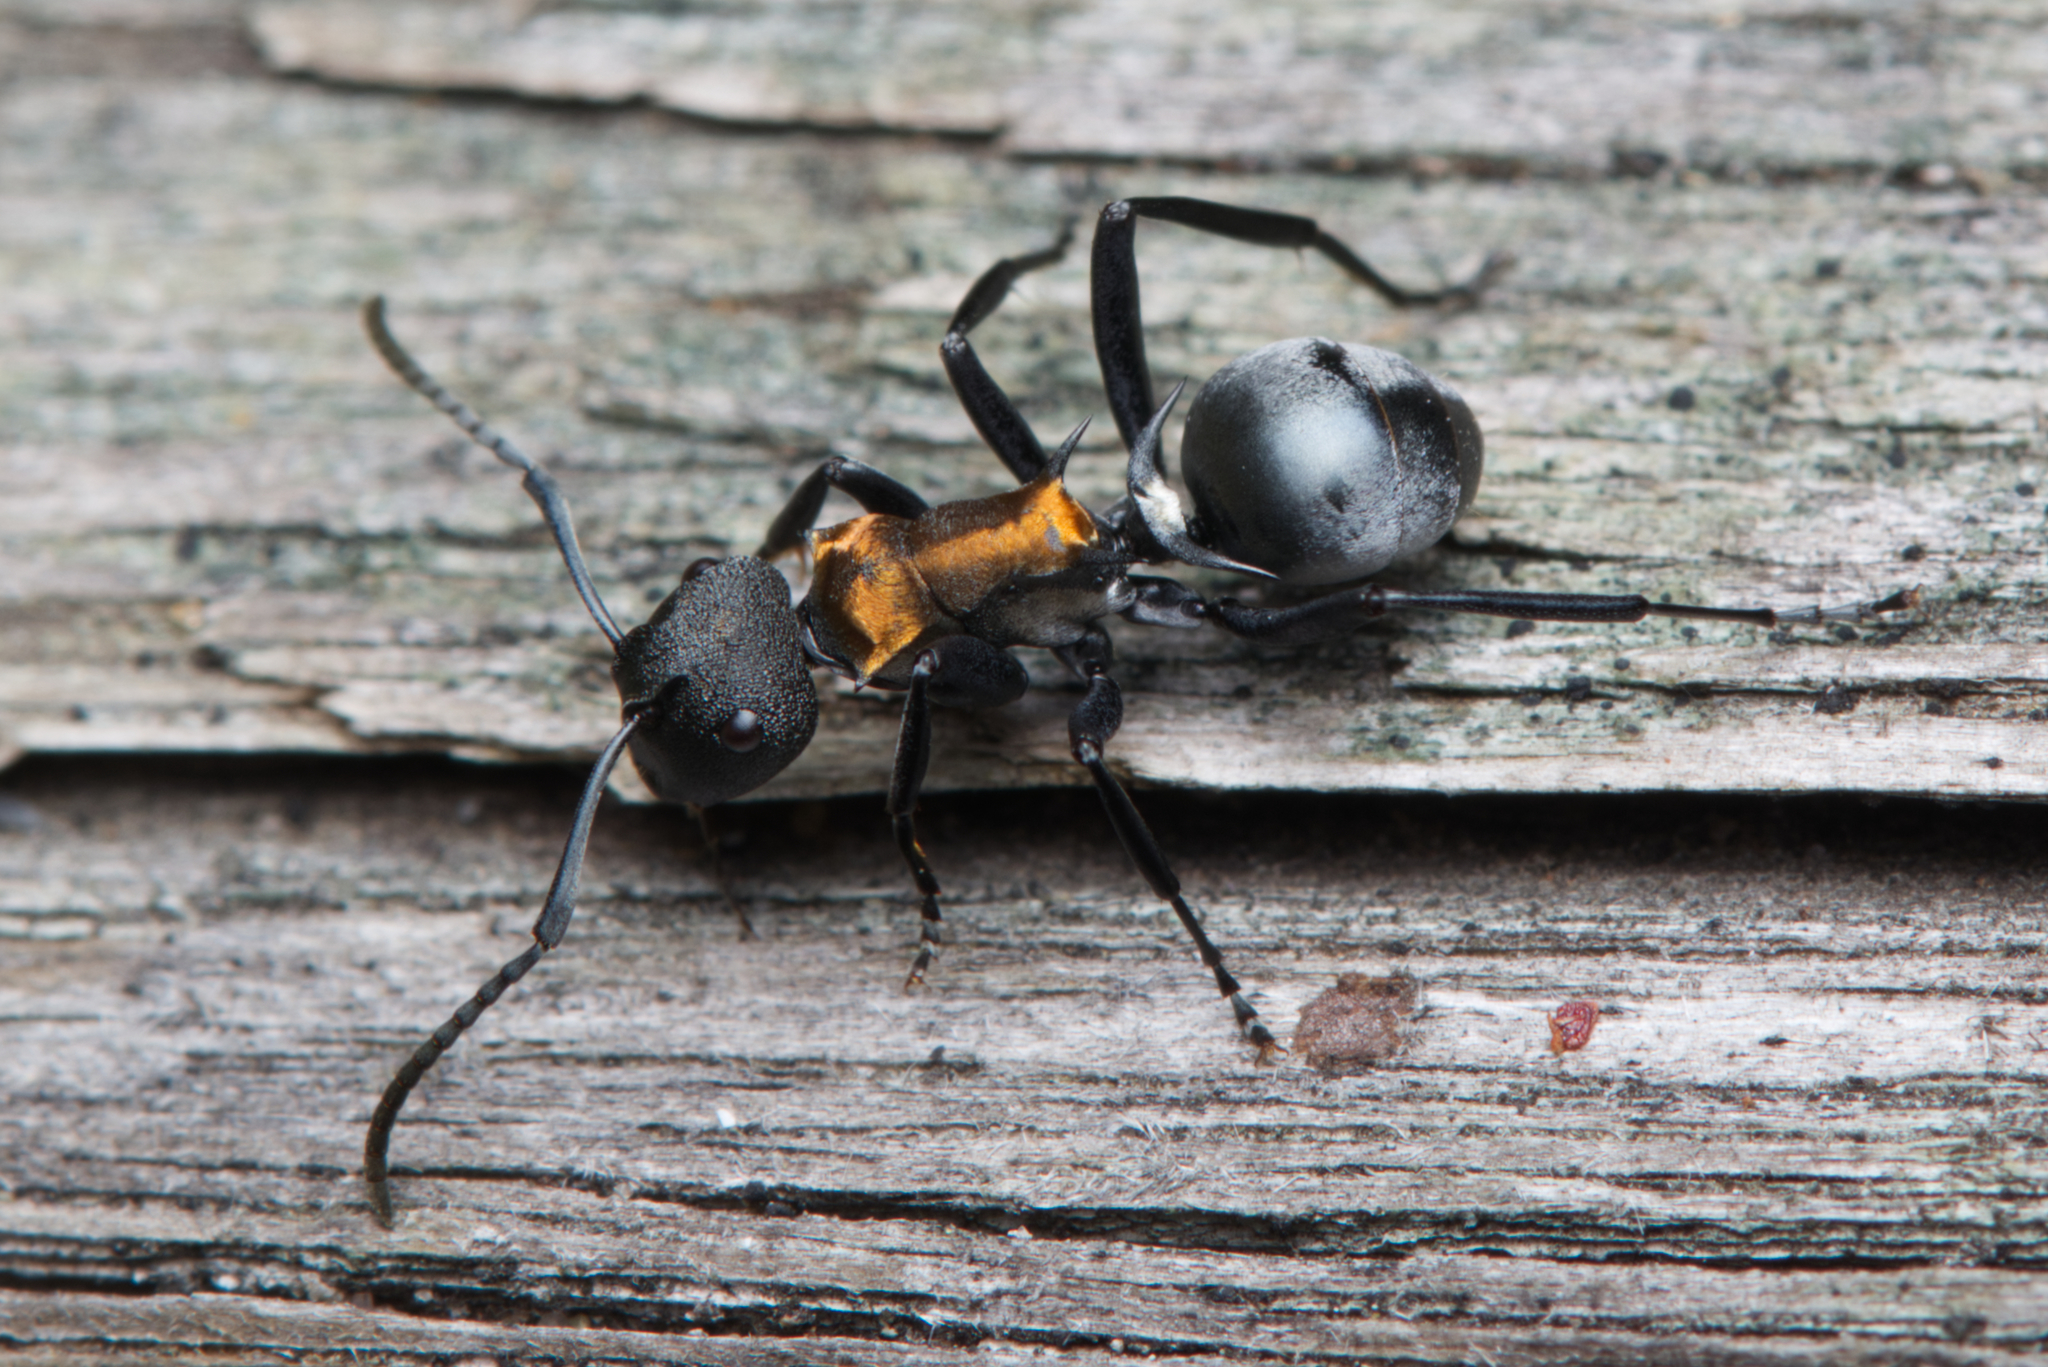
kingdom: Animalia
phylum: Arthropoda
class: Insecta
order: Hymenoptera
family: Formicidae
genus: Polyrhachis
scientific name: Polyrhachis ornata
